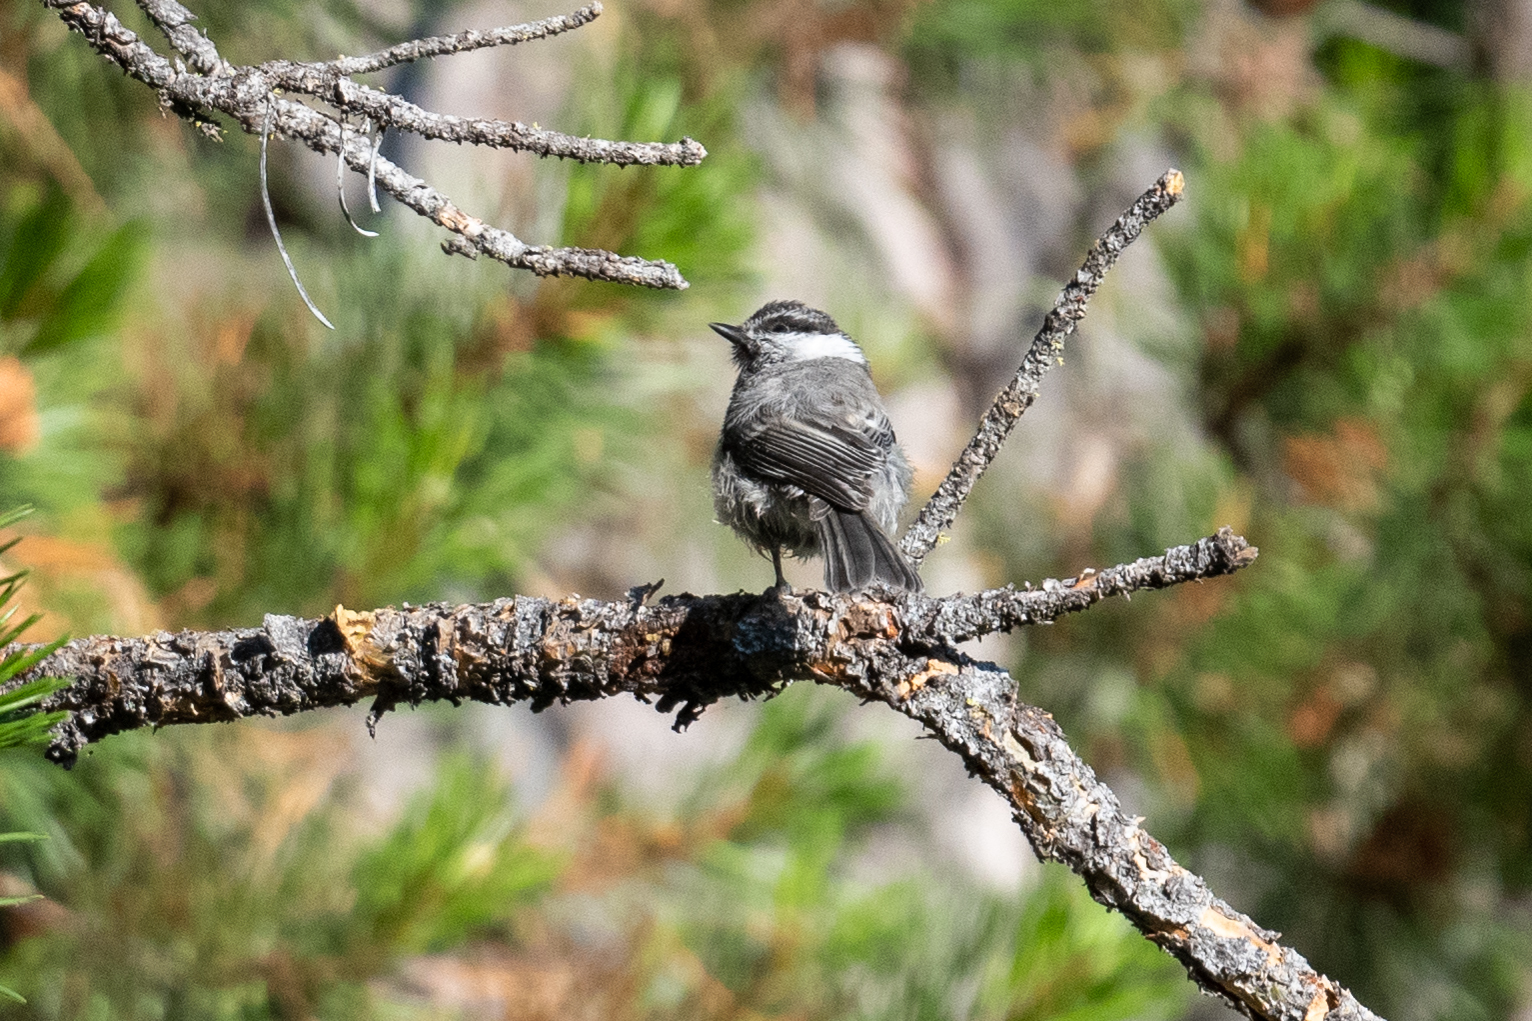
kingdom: Animalia
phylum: Chordata
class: Aves
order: Passeriformes
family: Paridae
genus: Poecile
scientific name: Poecile gambeli
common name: Mountain chickadee
